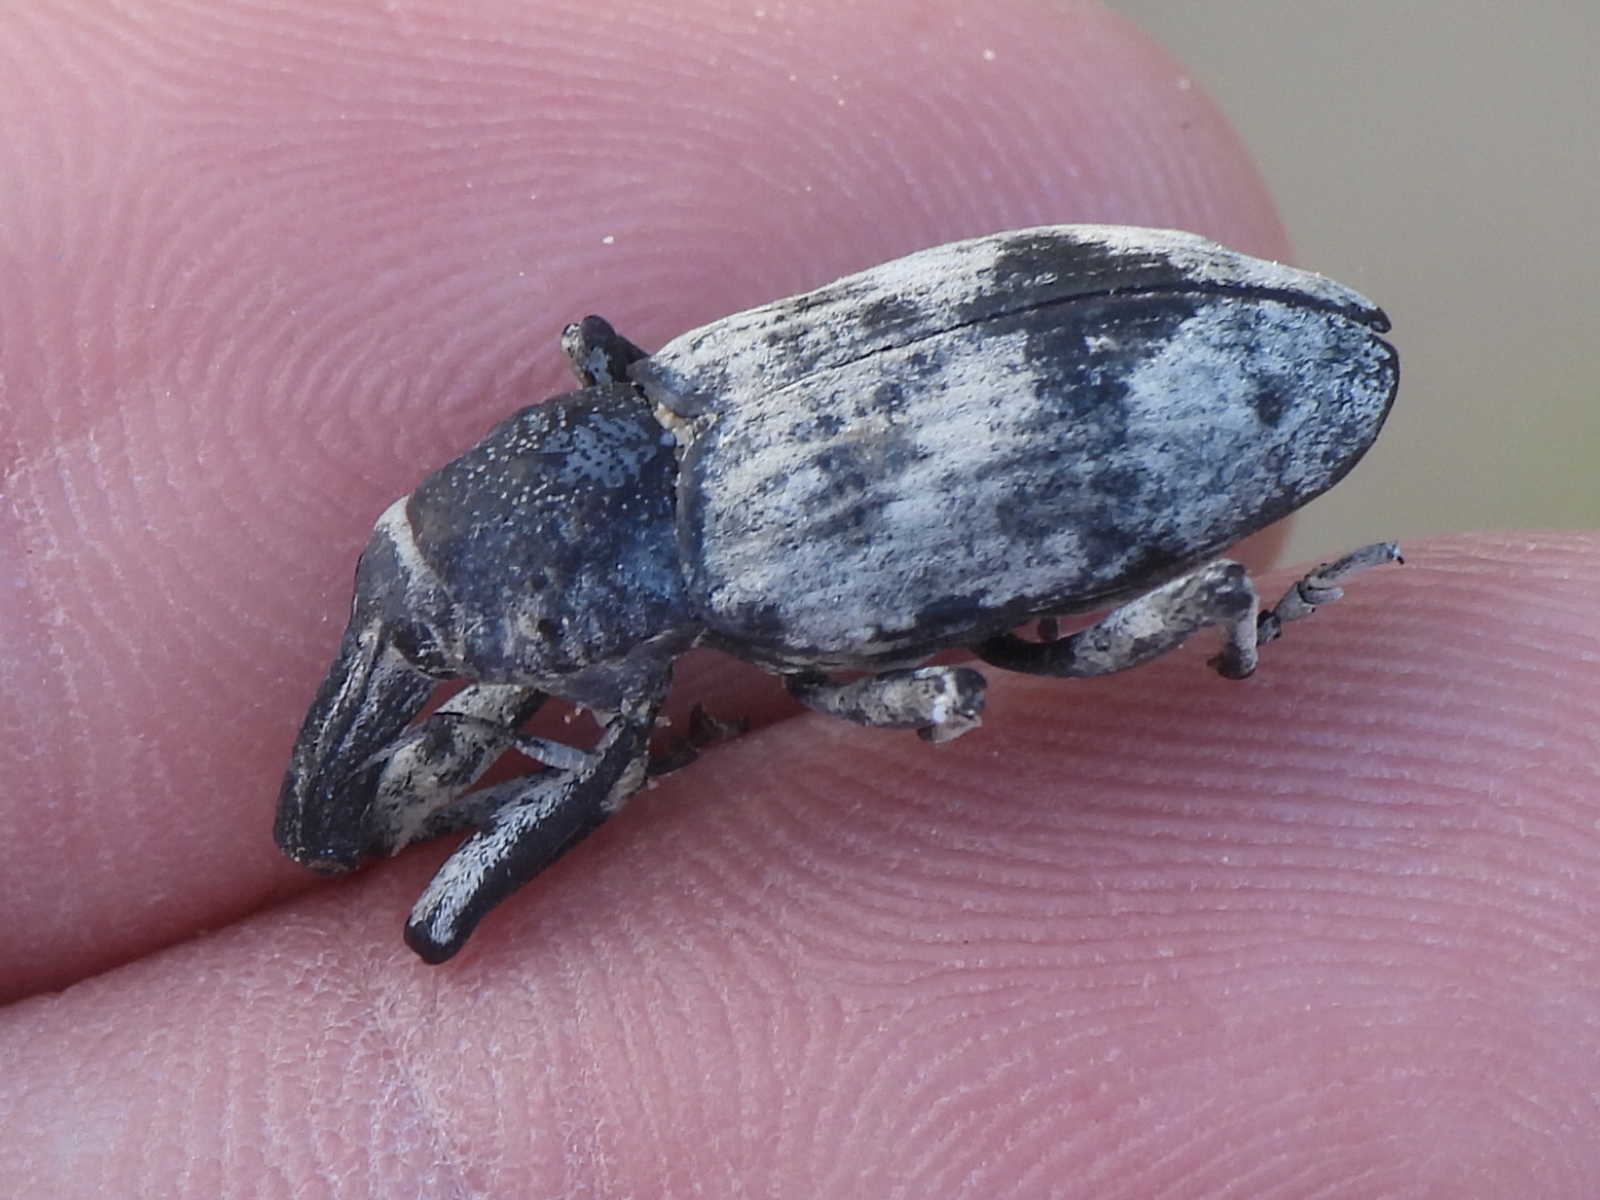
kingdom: Animalia
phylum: Arthropoda
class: Insecta
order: Coleoptera
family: Curculionidae
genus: Ammocleonus
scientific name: Ammocleonus hieroglyphicus
